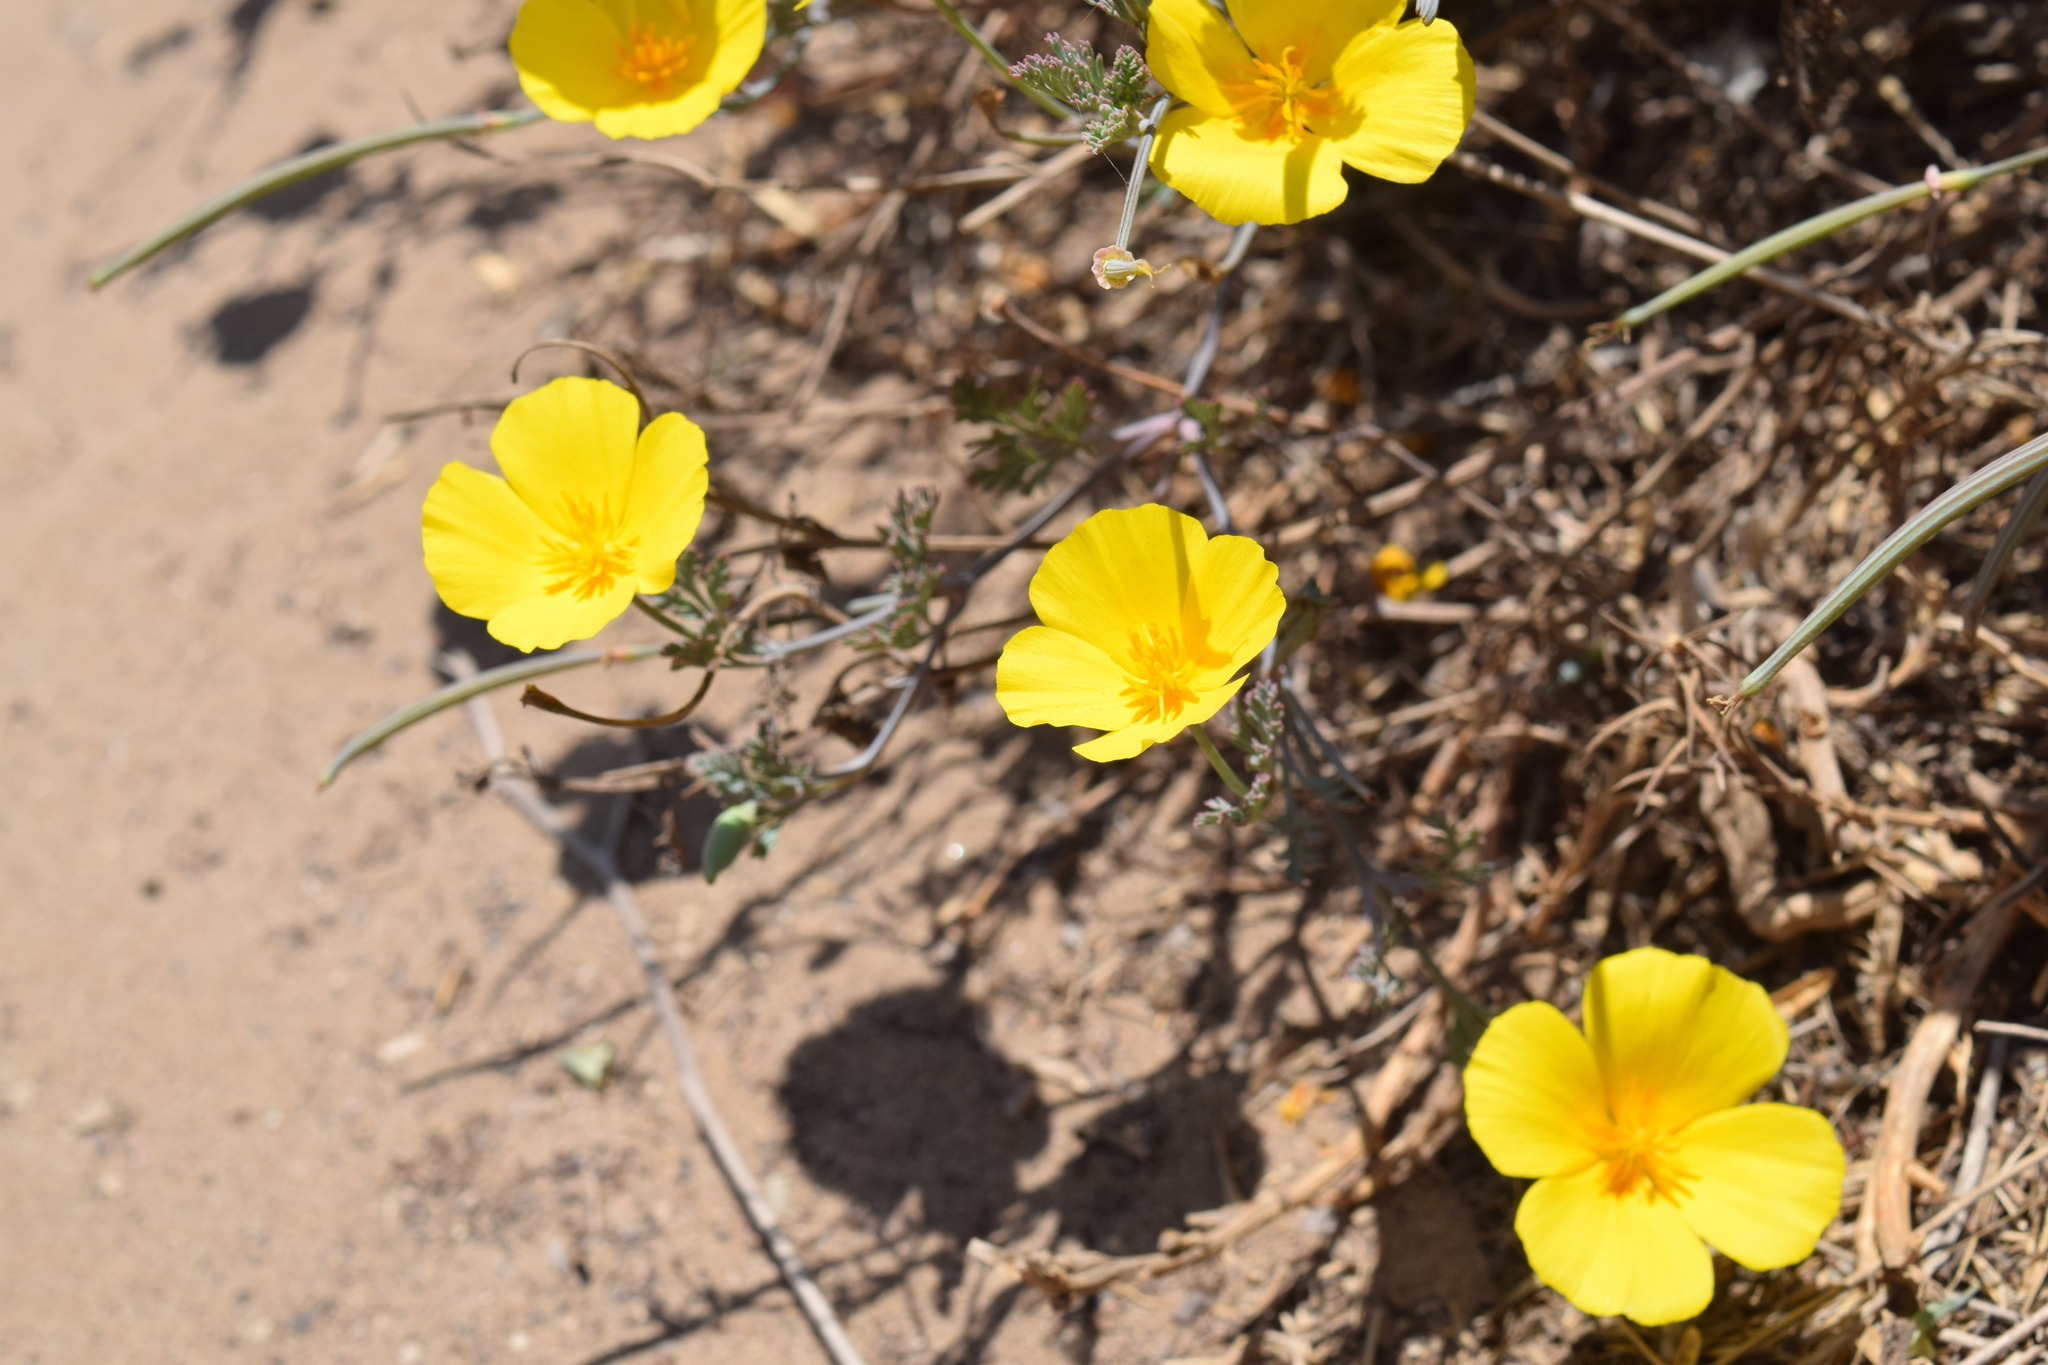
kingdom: Plantae
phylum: Tracheophyta
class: Magnoliopsida
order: Ranunculales
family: Papaveraceae
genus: Eschscholzia
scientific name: Eschscholzia californica
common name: California poppy
